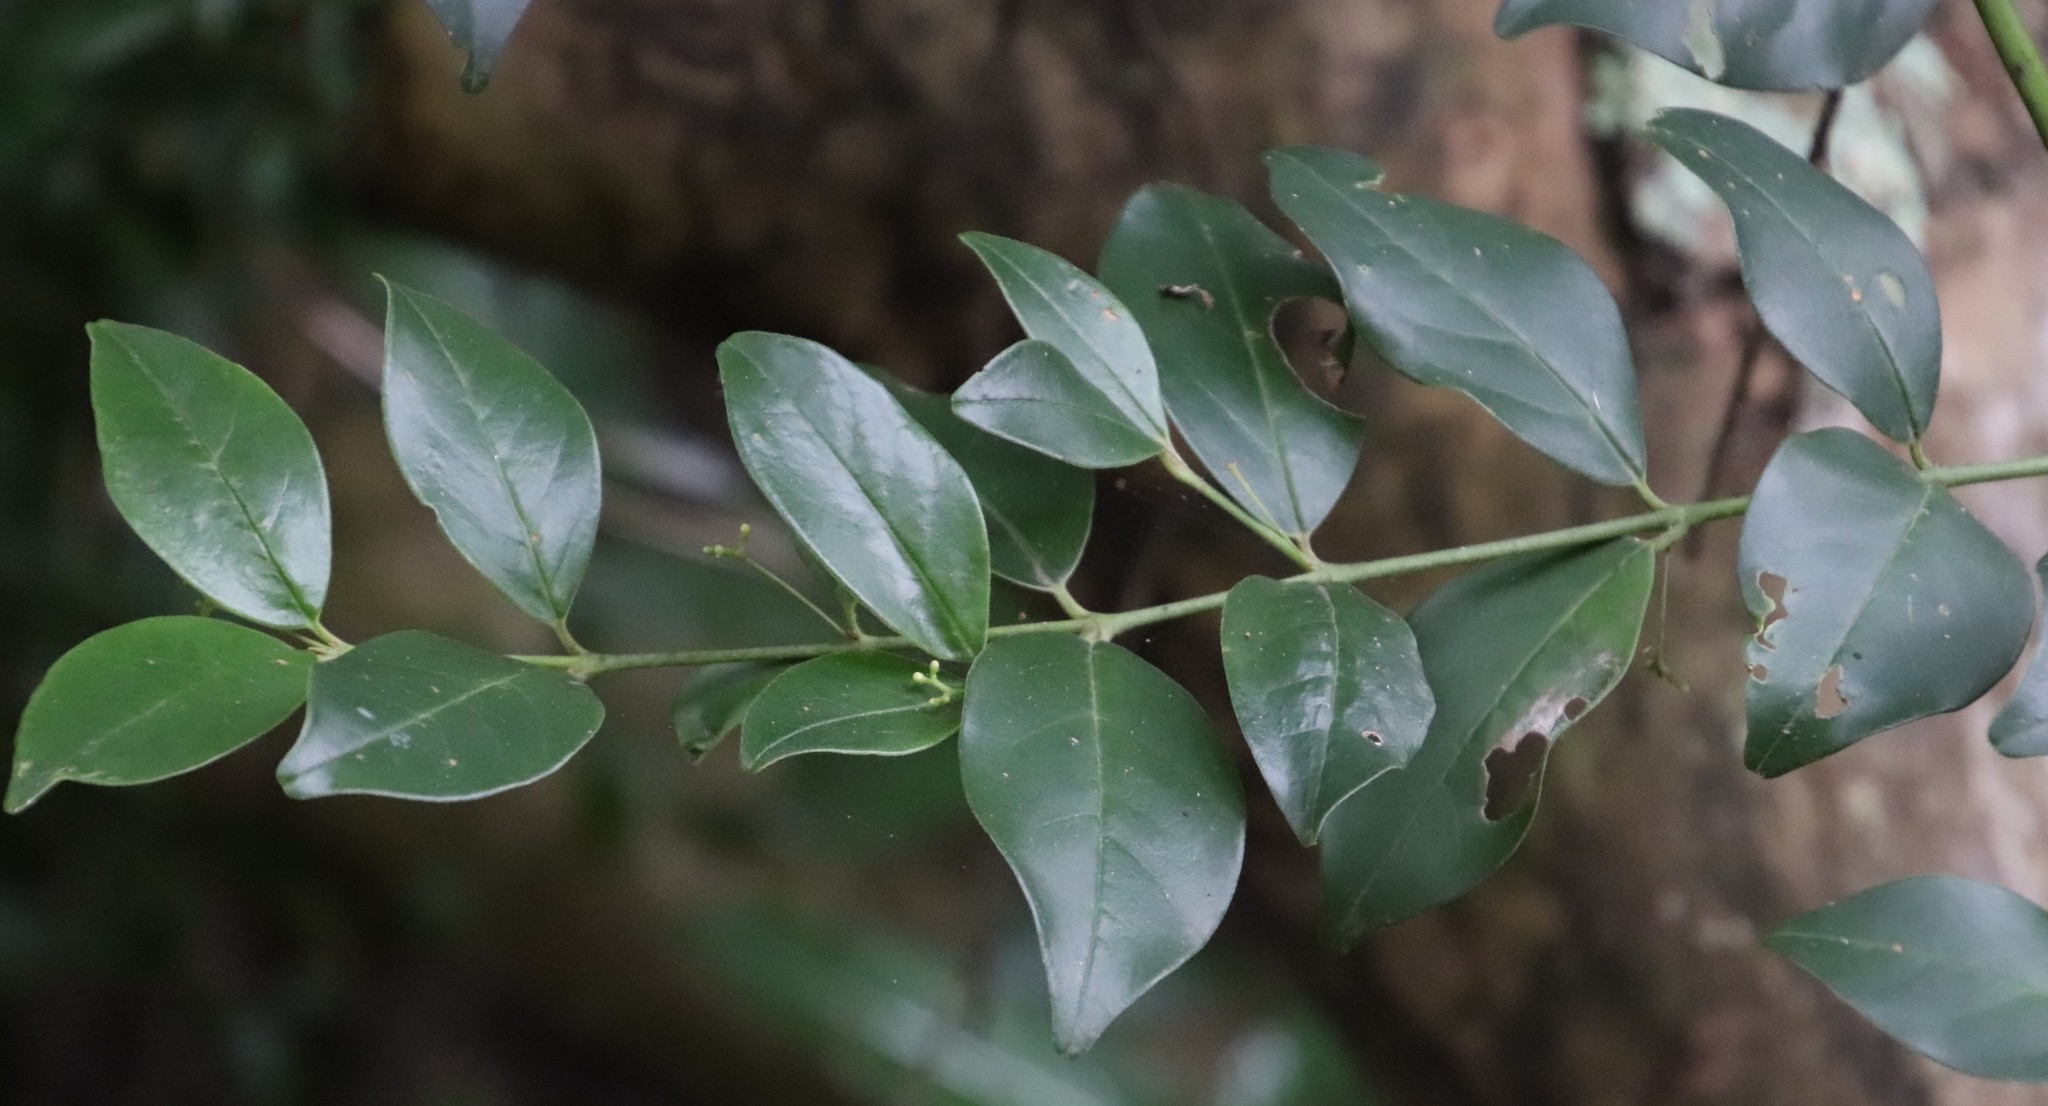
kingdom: Plantae
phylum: Tracheophyta
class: Magnoliopsida
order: Icacinales
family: Icacinaceae
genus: Cassinopsis
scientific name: Cassinopsis tinifolia
